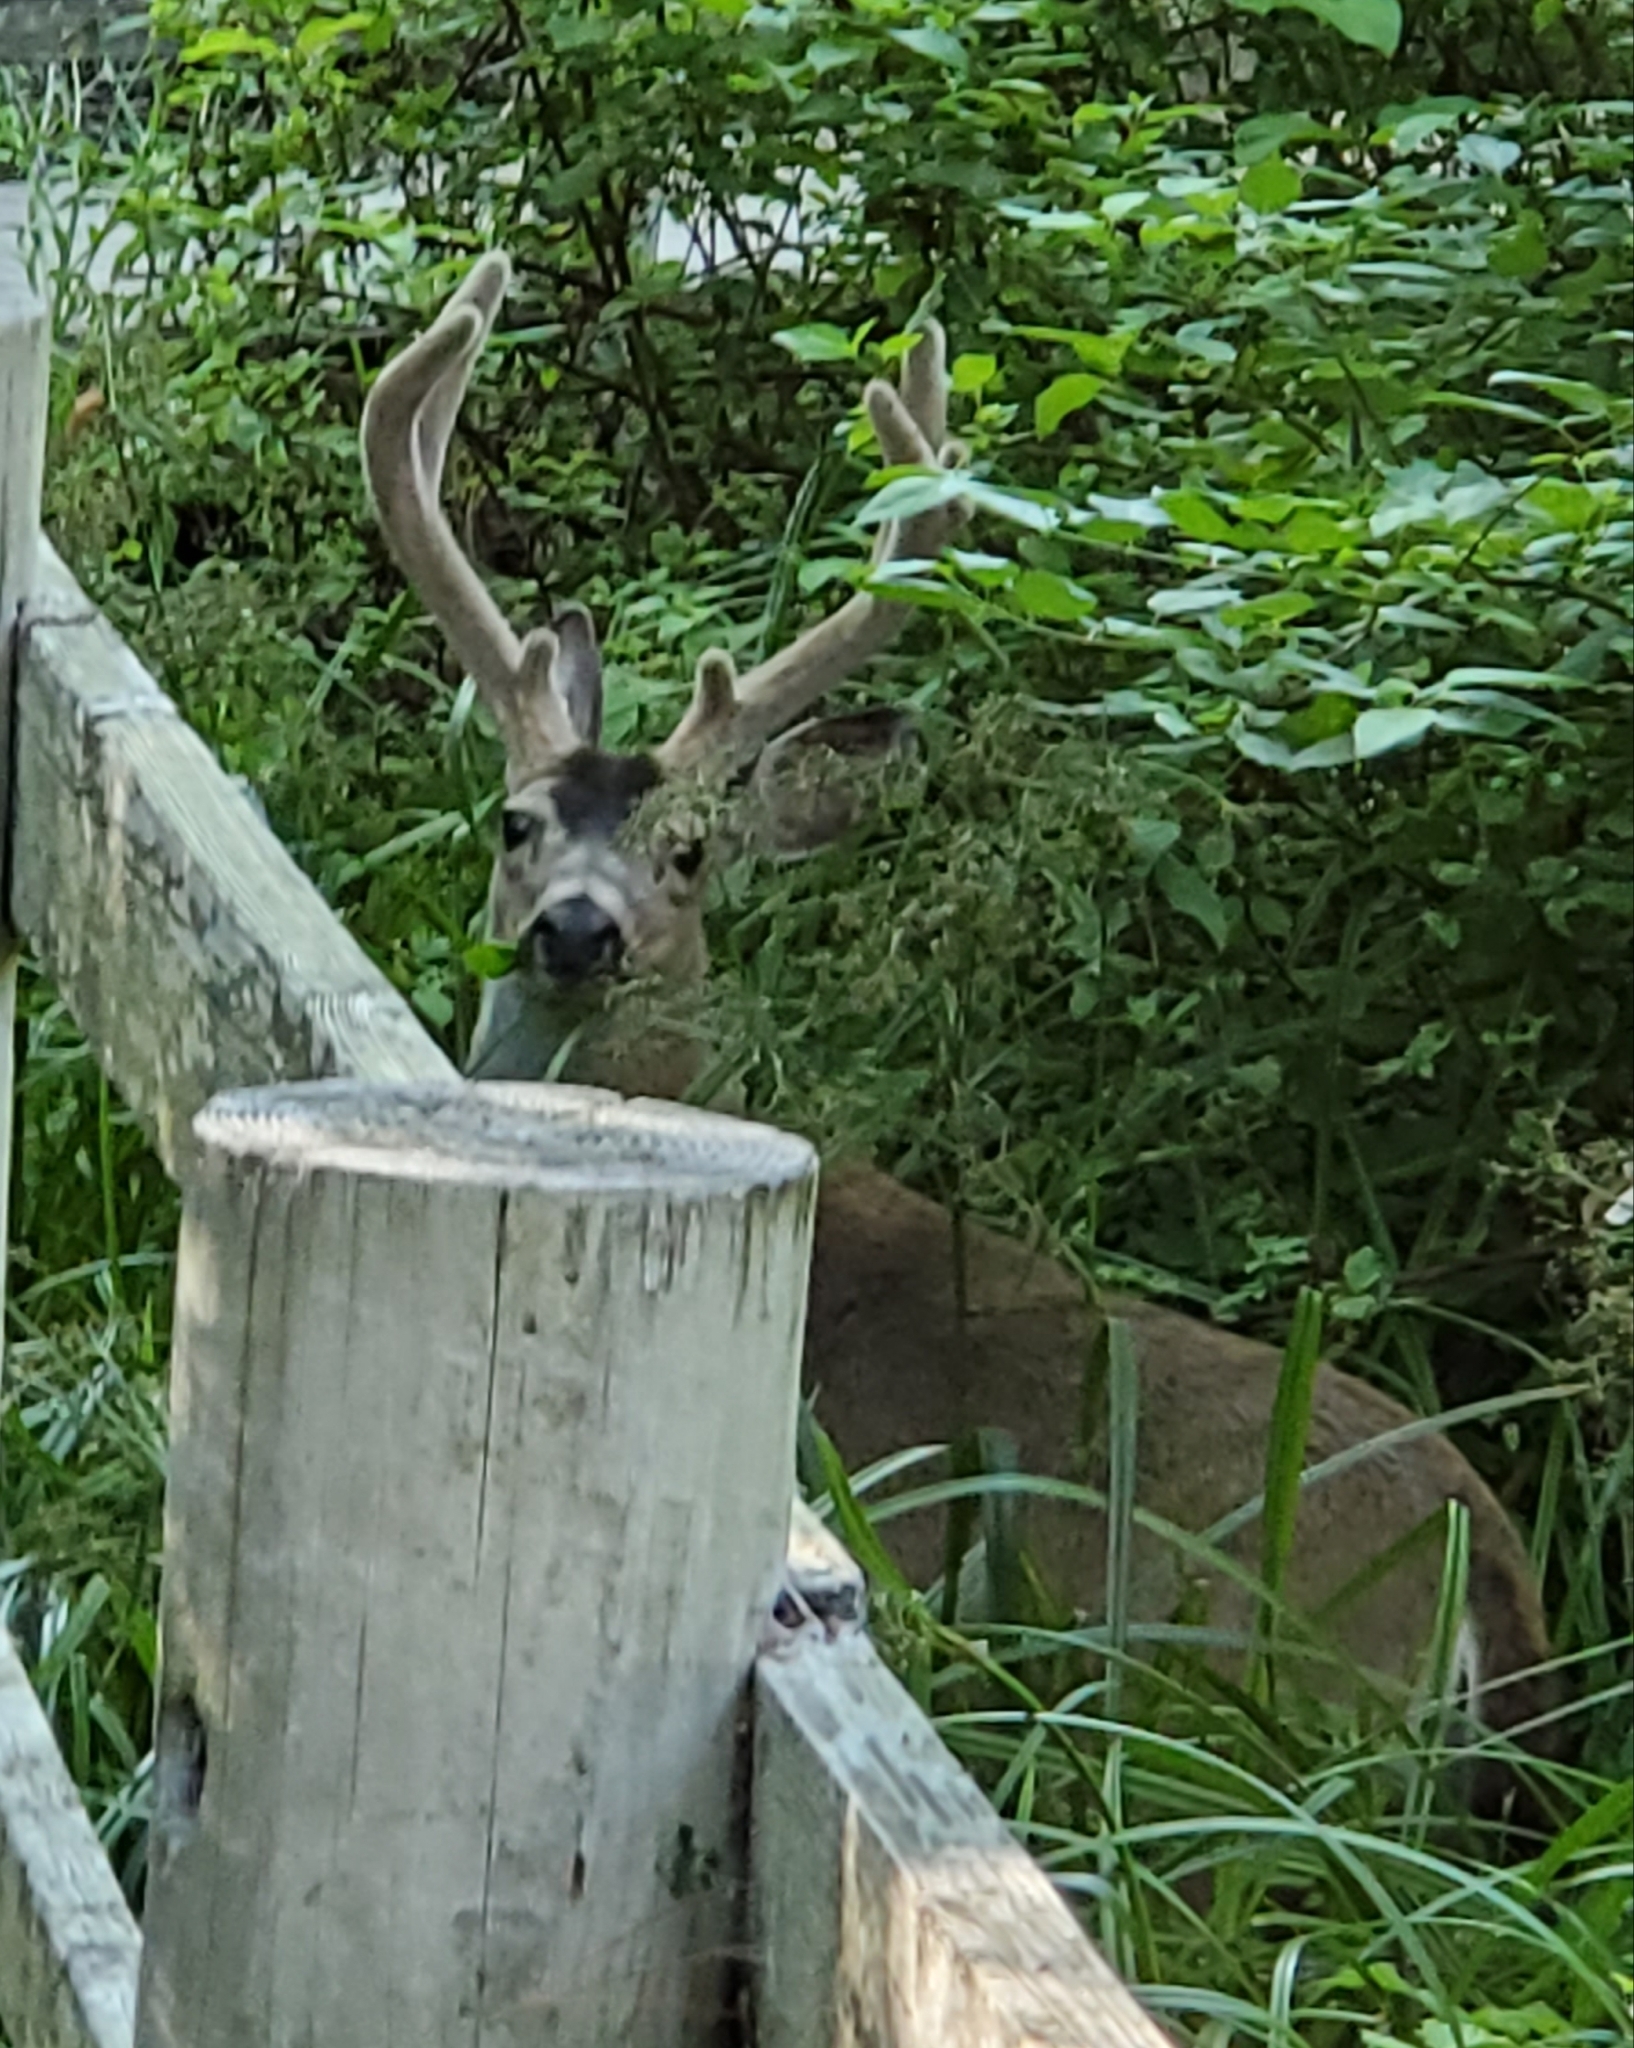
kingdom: Animalia
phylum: Chordata
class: Mammalia
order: Artiodactyla
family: Cervidae
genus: Odocoileus
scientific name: Odocoileus hemionus
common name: Mule deer
